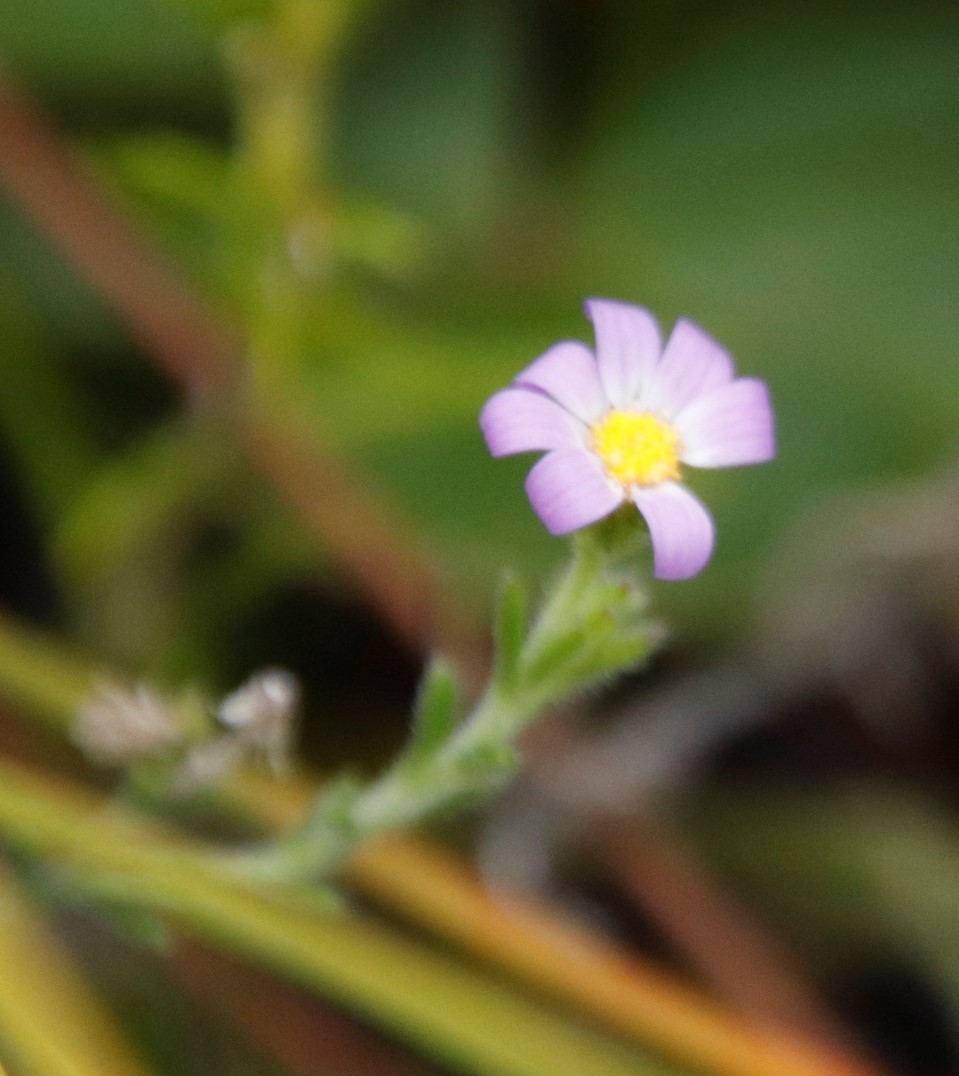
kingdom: Plantae
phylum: Tracheophyta
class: Magnoliopsida
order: Asterales
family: Asteraceae
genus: Felicia
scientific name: Felicia tenella
